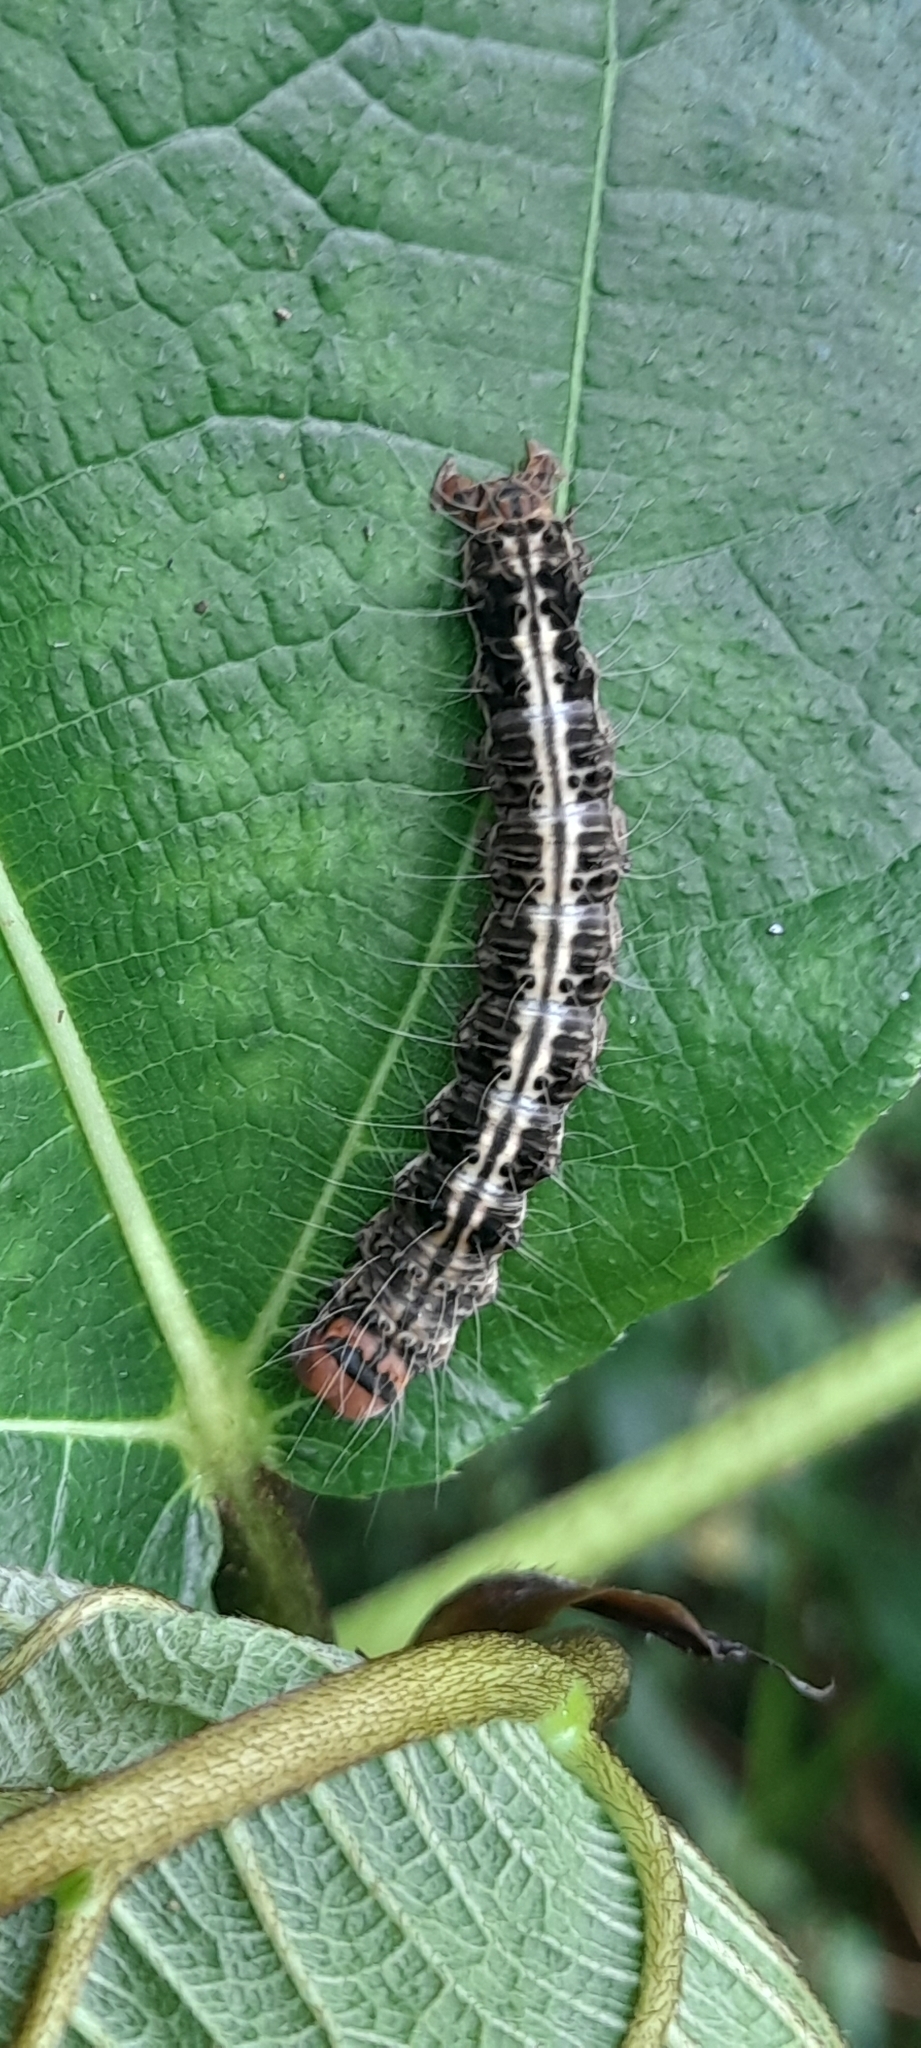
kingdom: Animalia
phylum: Arthropoda
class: Insecta
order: Lepidoptera
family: Erebidae
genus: Asota
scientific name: Asota caricae
